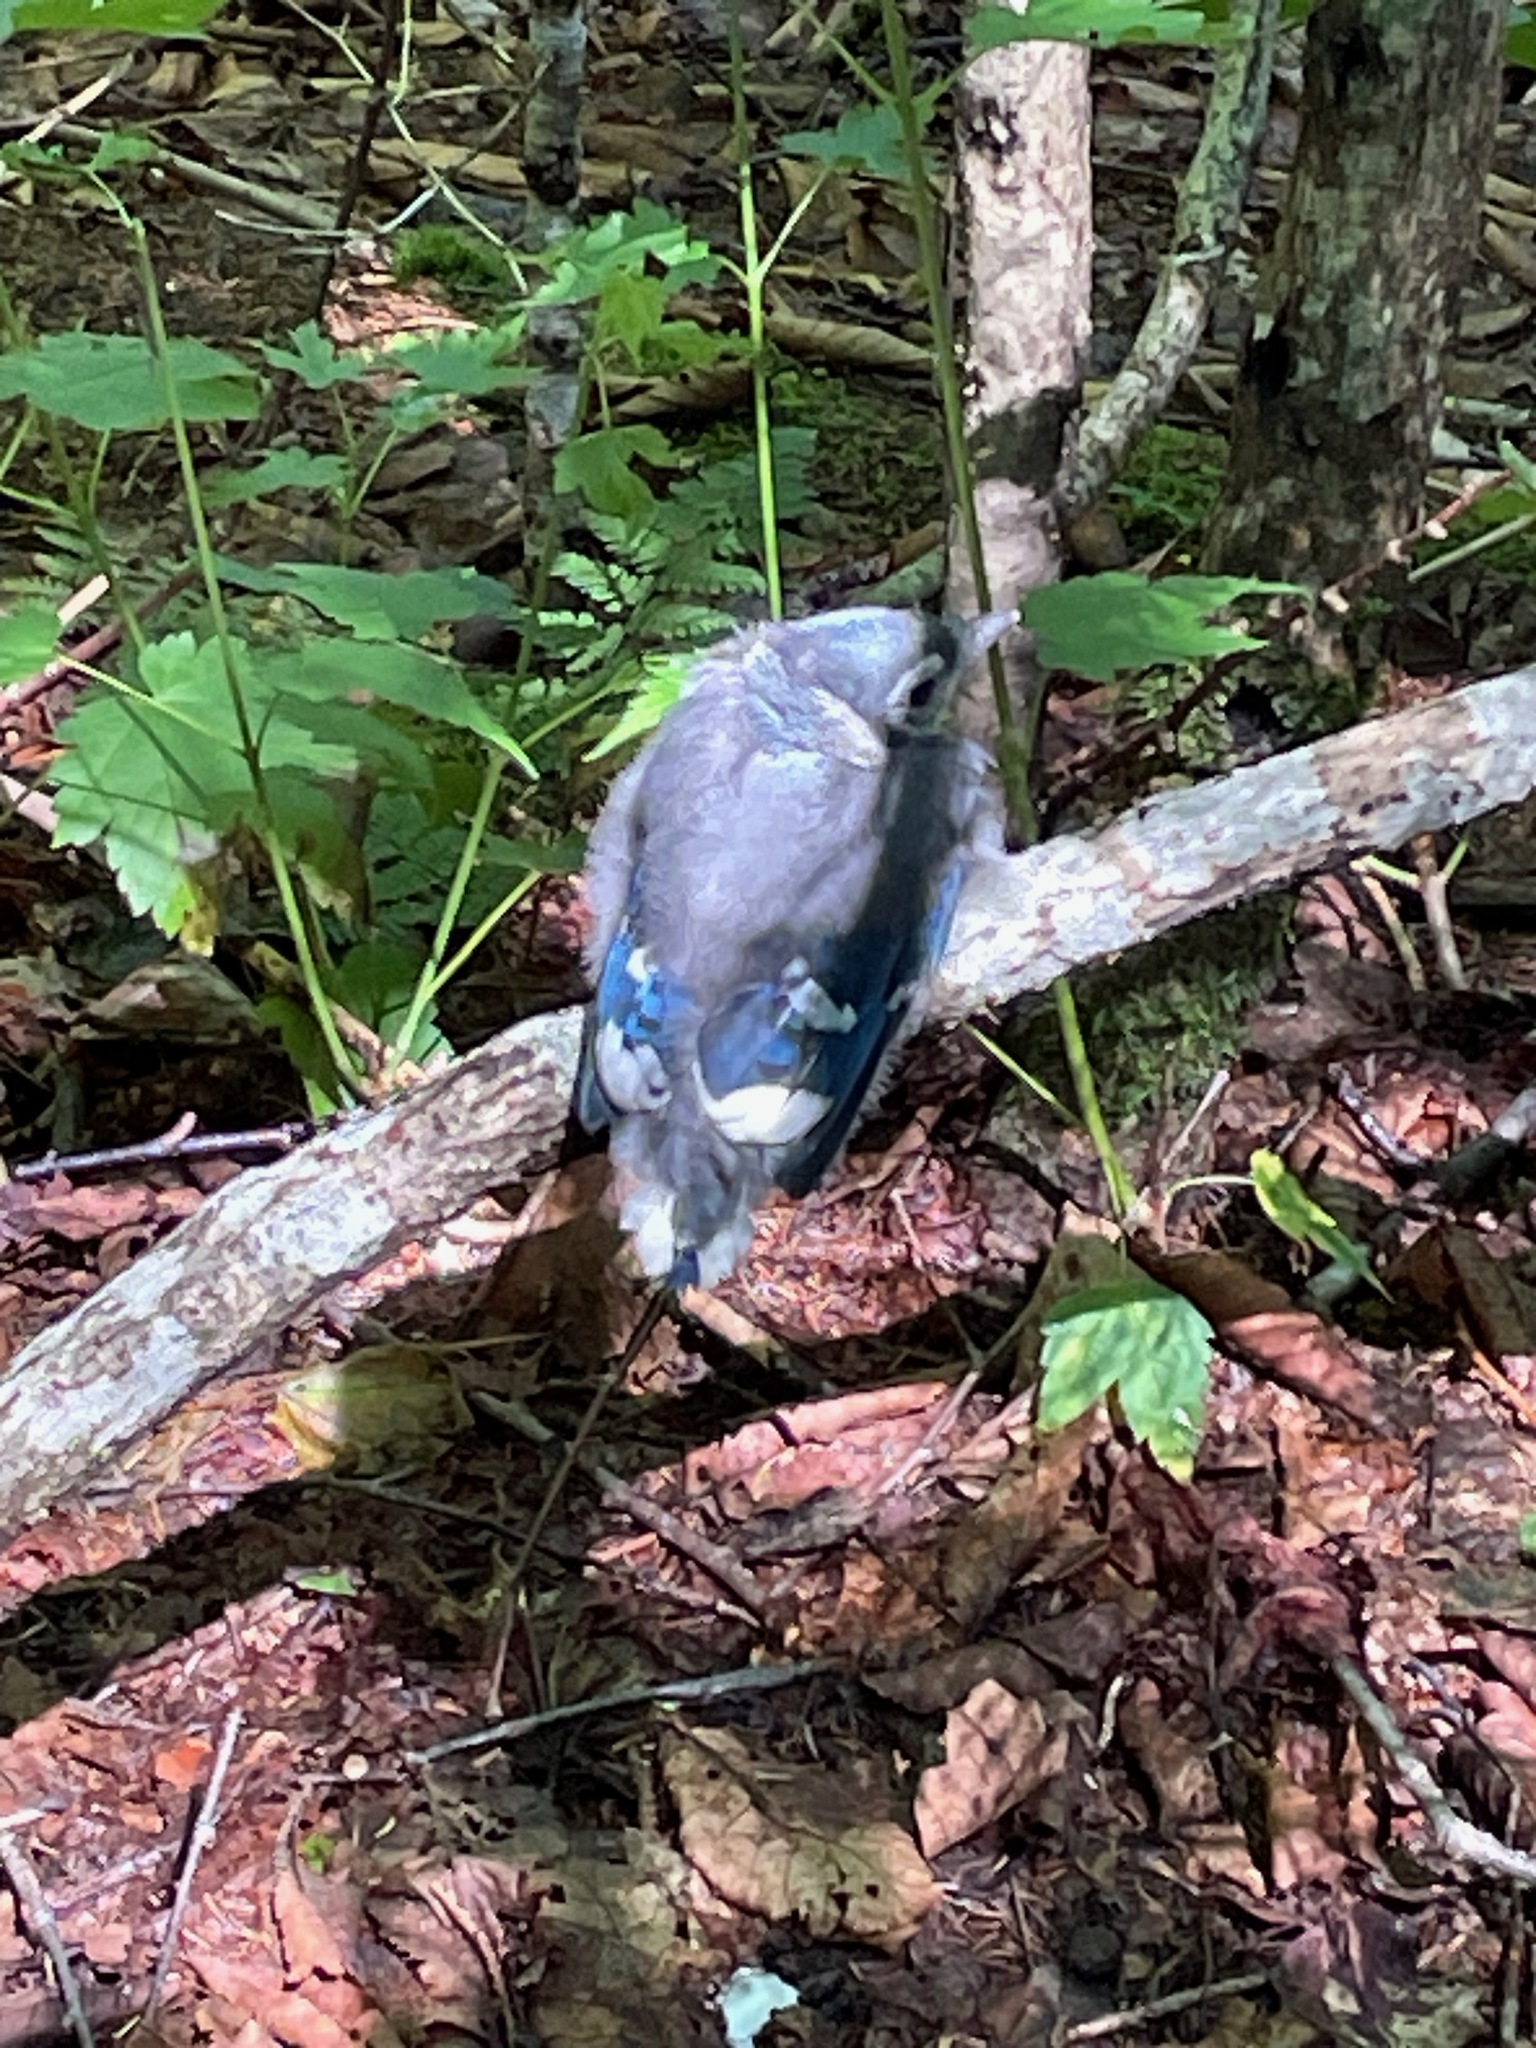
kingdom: Animalia
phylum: Chordata
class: Aves
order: Passeriformes
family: Corvidae
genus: Cyanocitta
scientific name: Cyanocitta cristata
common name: Blue jay
